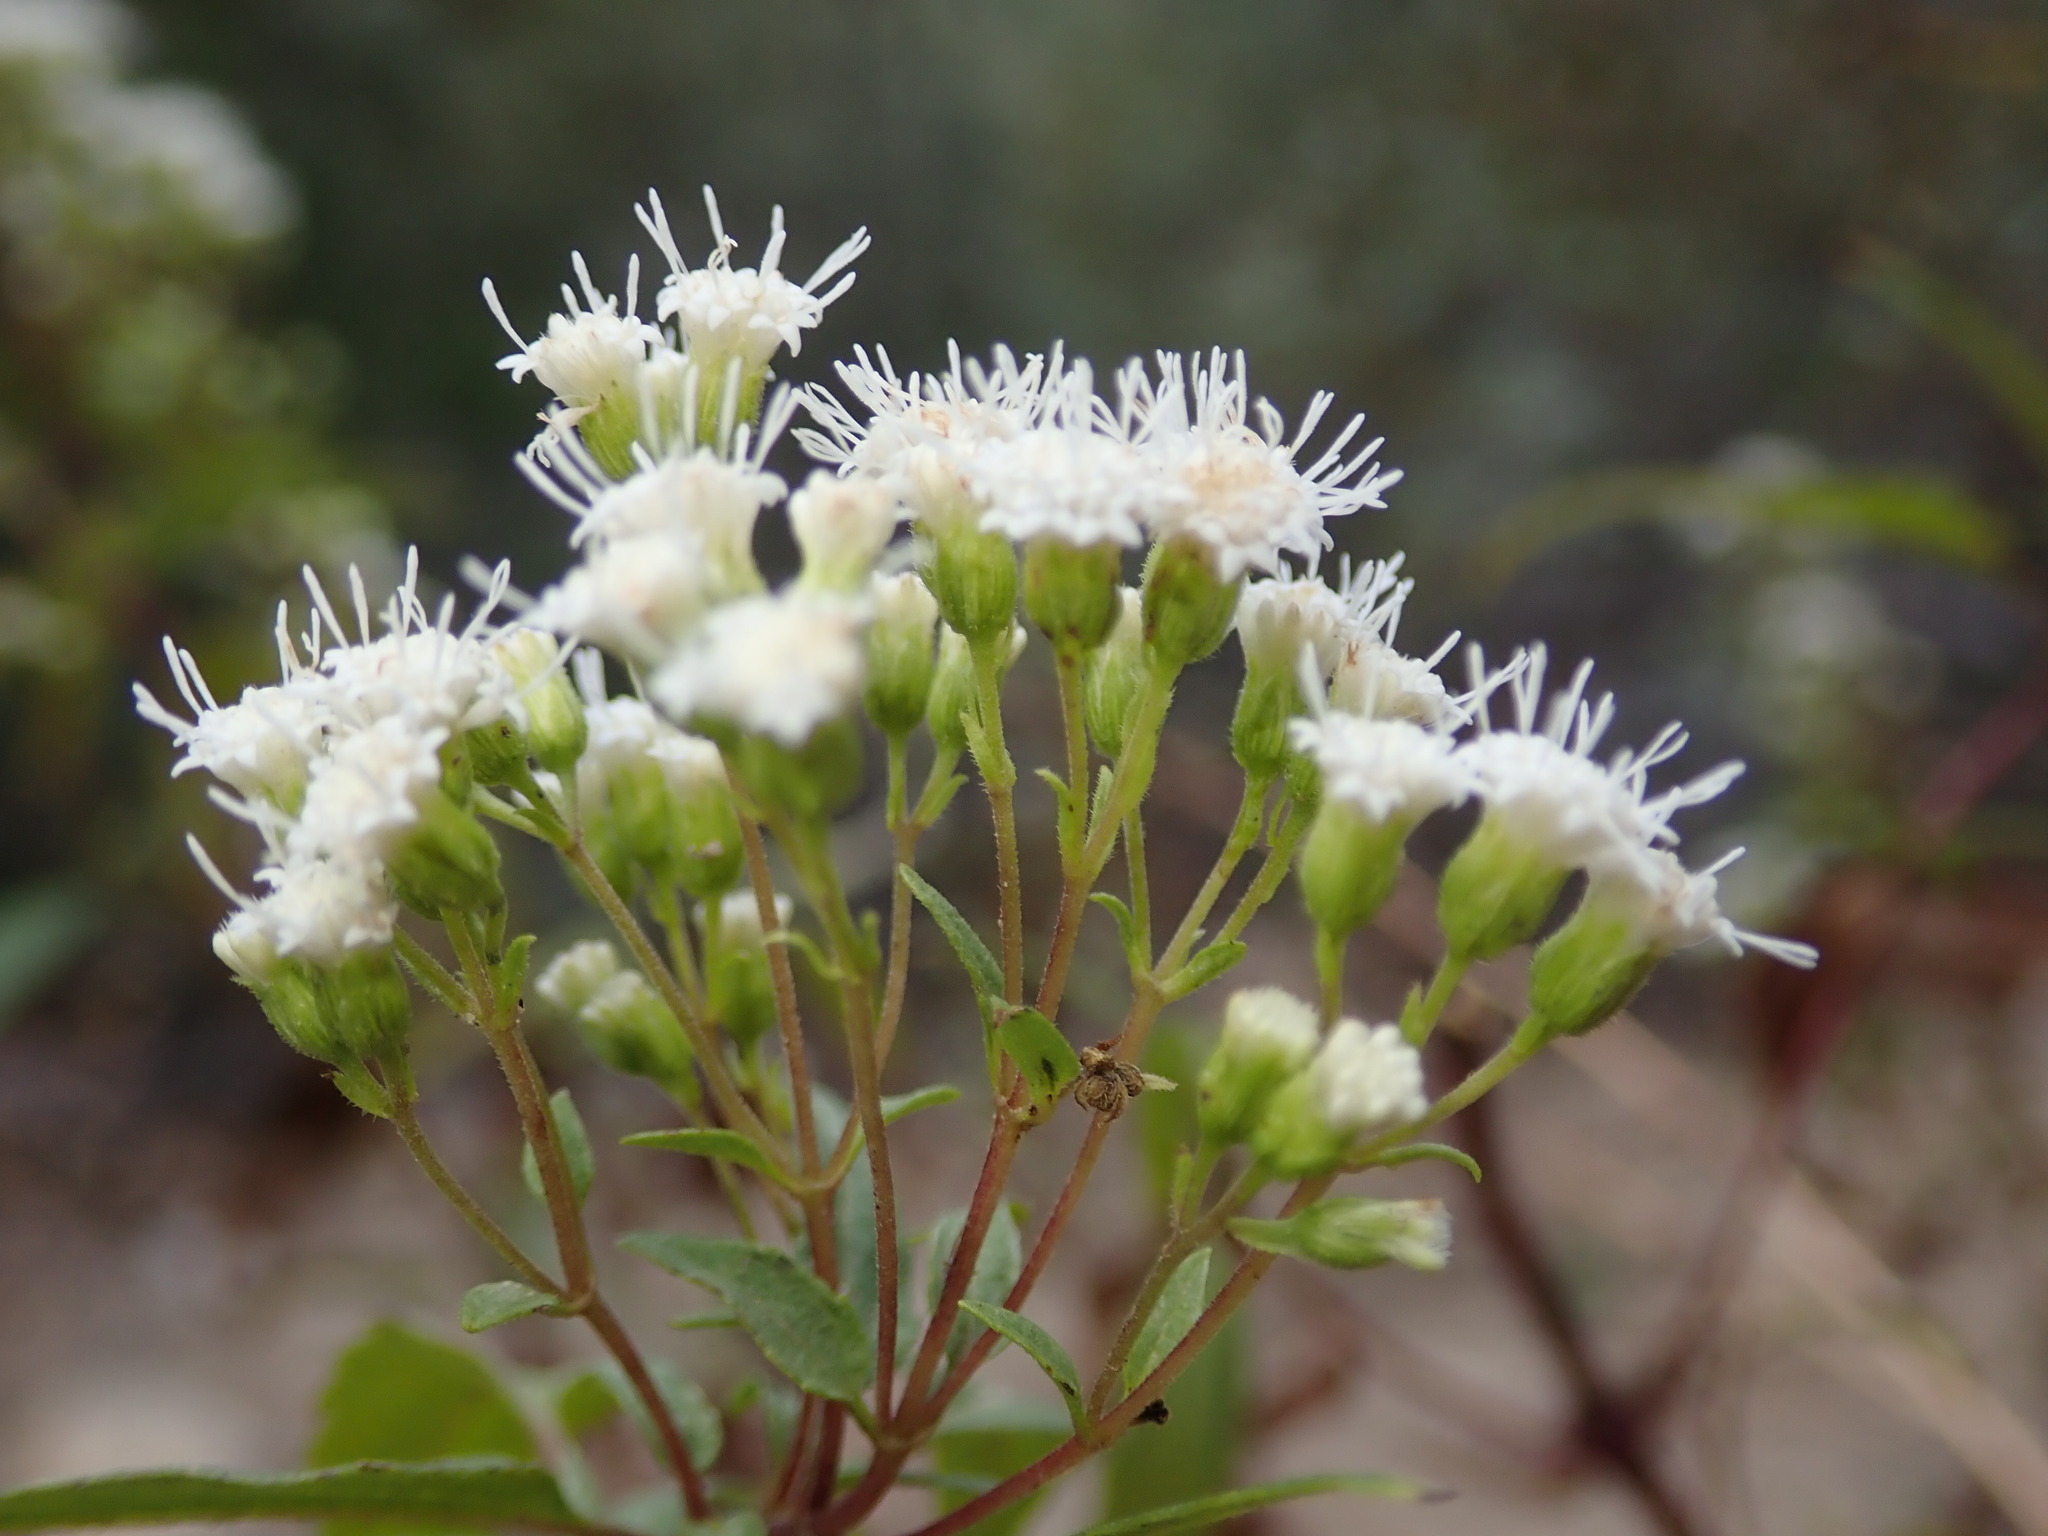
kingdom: Plantae
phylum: Tracheophyta
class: Magnoliopsida
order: Asterales
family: Asteraceae
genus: Ageratina
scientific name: Ageratina paupercula
